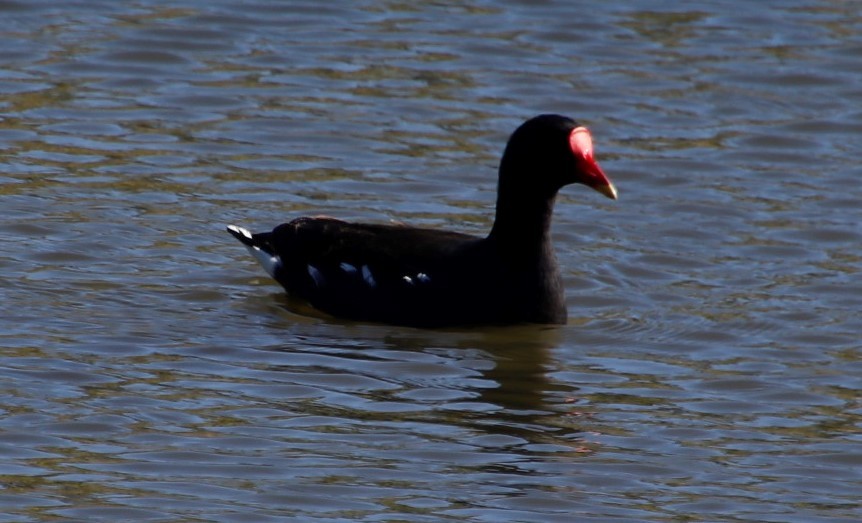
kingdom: Animalia
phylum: Chordata
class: Aves
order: Gruiformes
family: Rallidae
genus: Gallinula
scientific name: Gallinula chloropus
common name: Common moorhen
